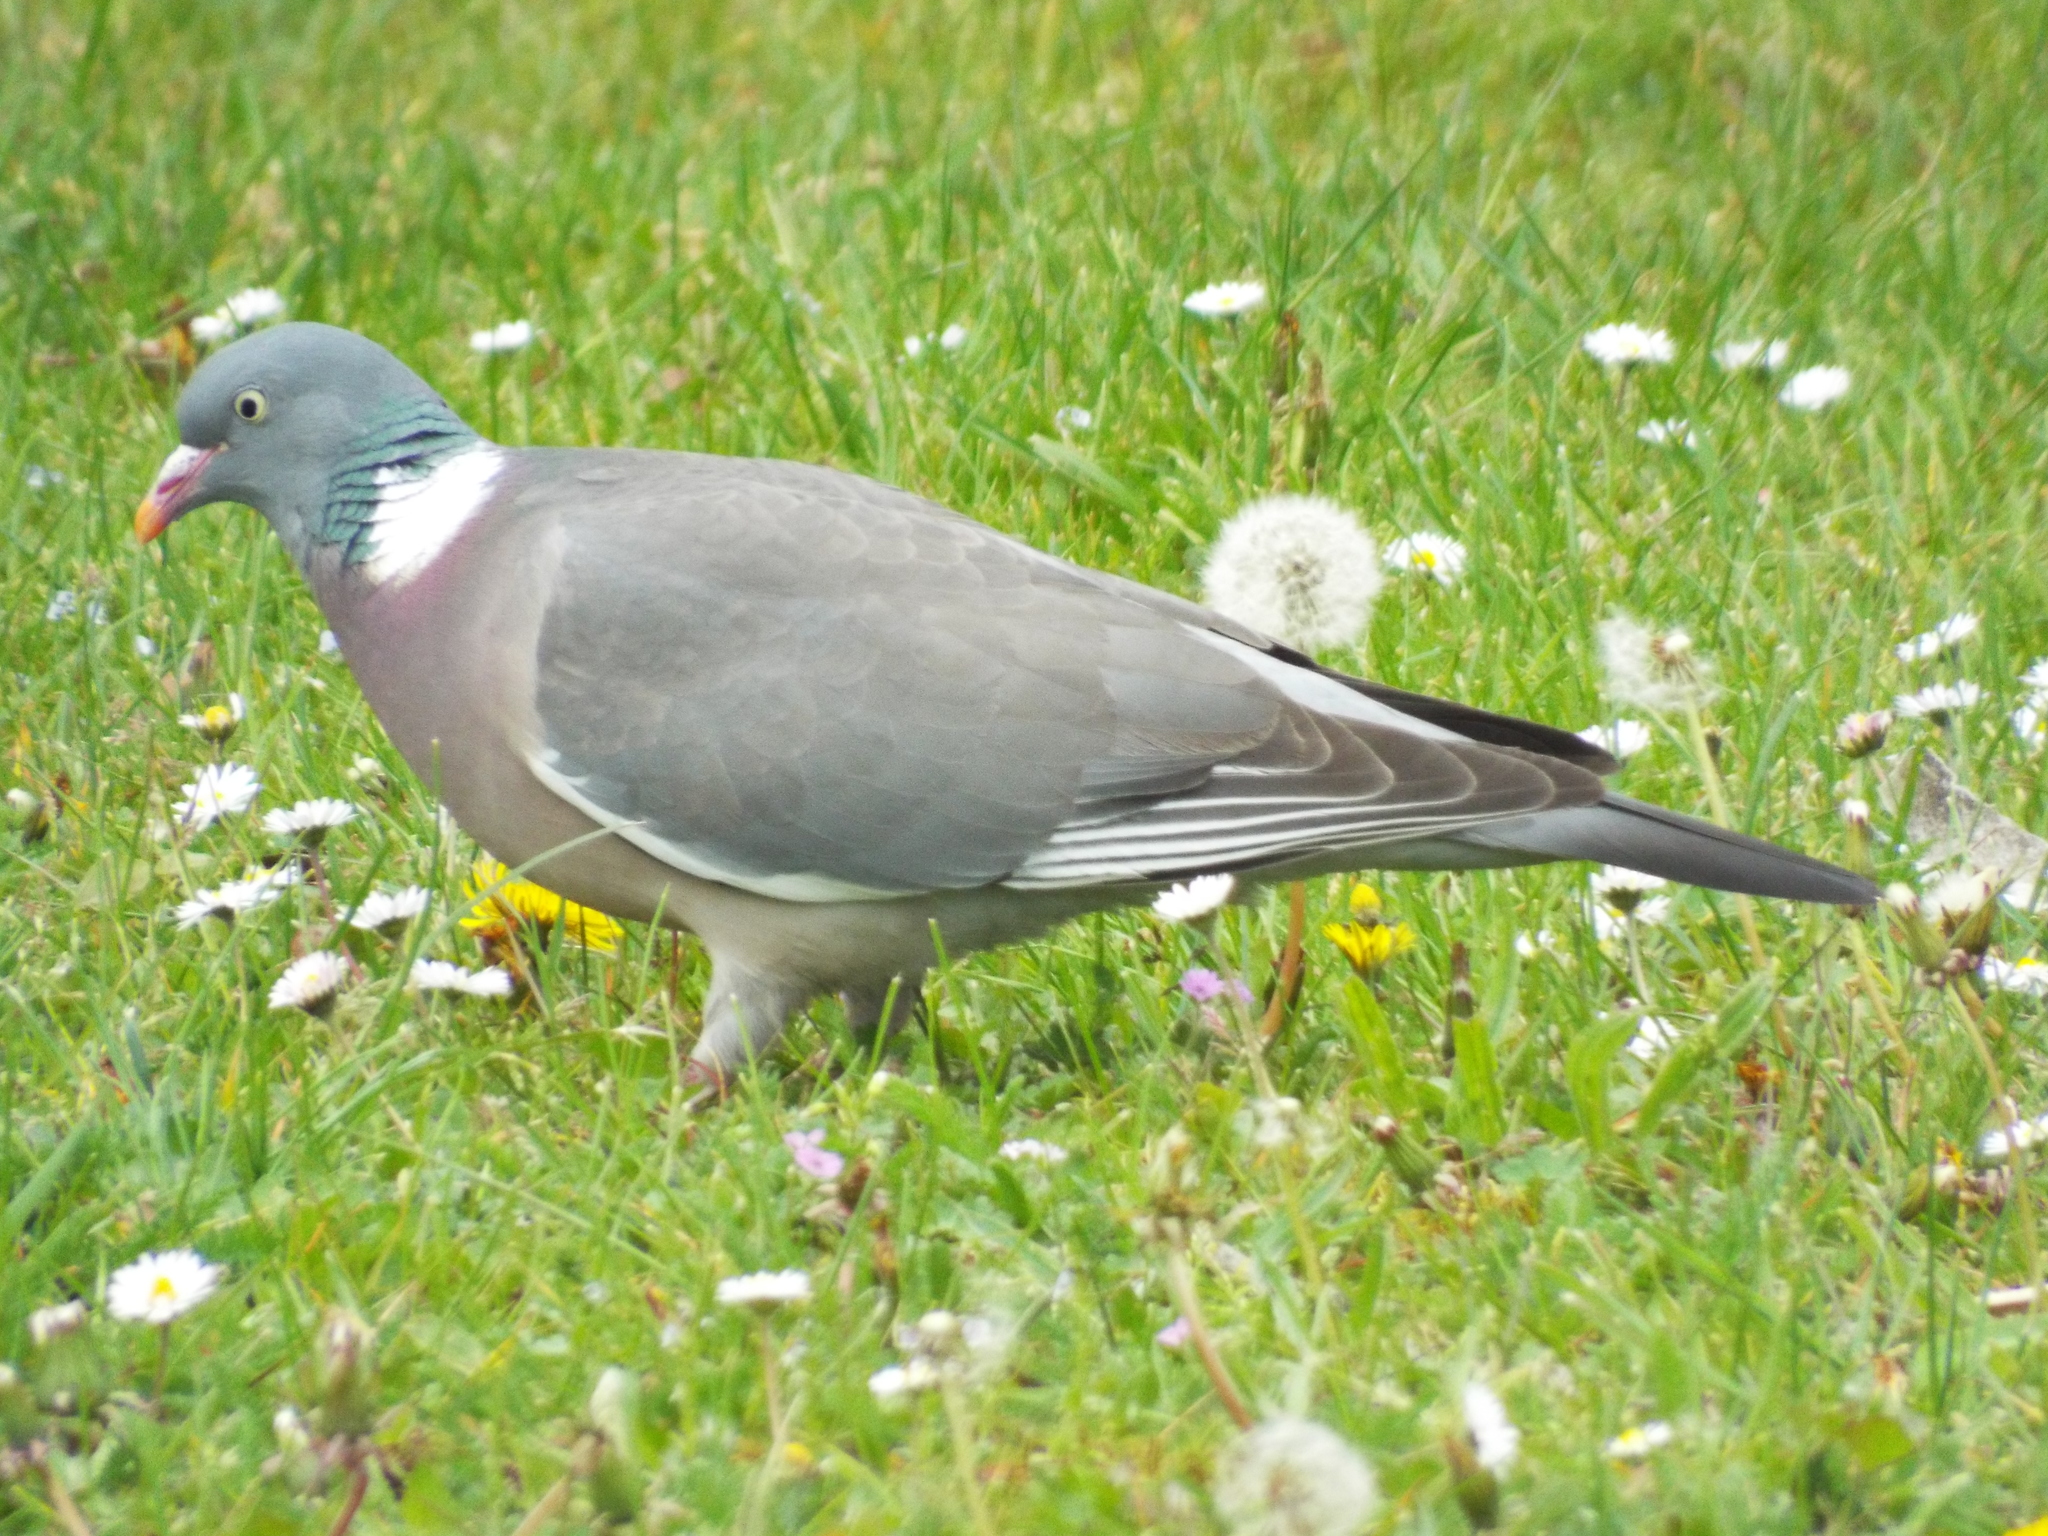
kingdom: Animalia
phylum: Chordata
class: Aves
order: Columbiformes
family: Columbidae
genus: Columba
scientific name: Columba palumbus
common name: Common wood pigeon
